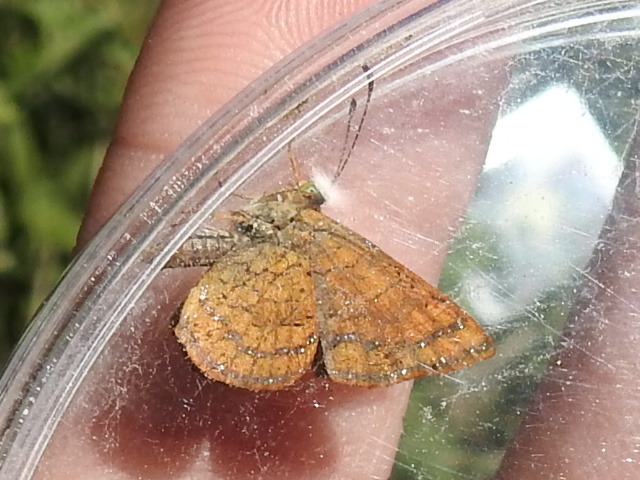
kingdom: Animalia
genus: Calephelis
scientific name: Calephelis nemesis
